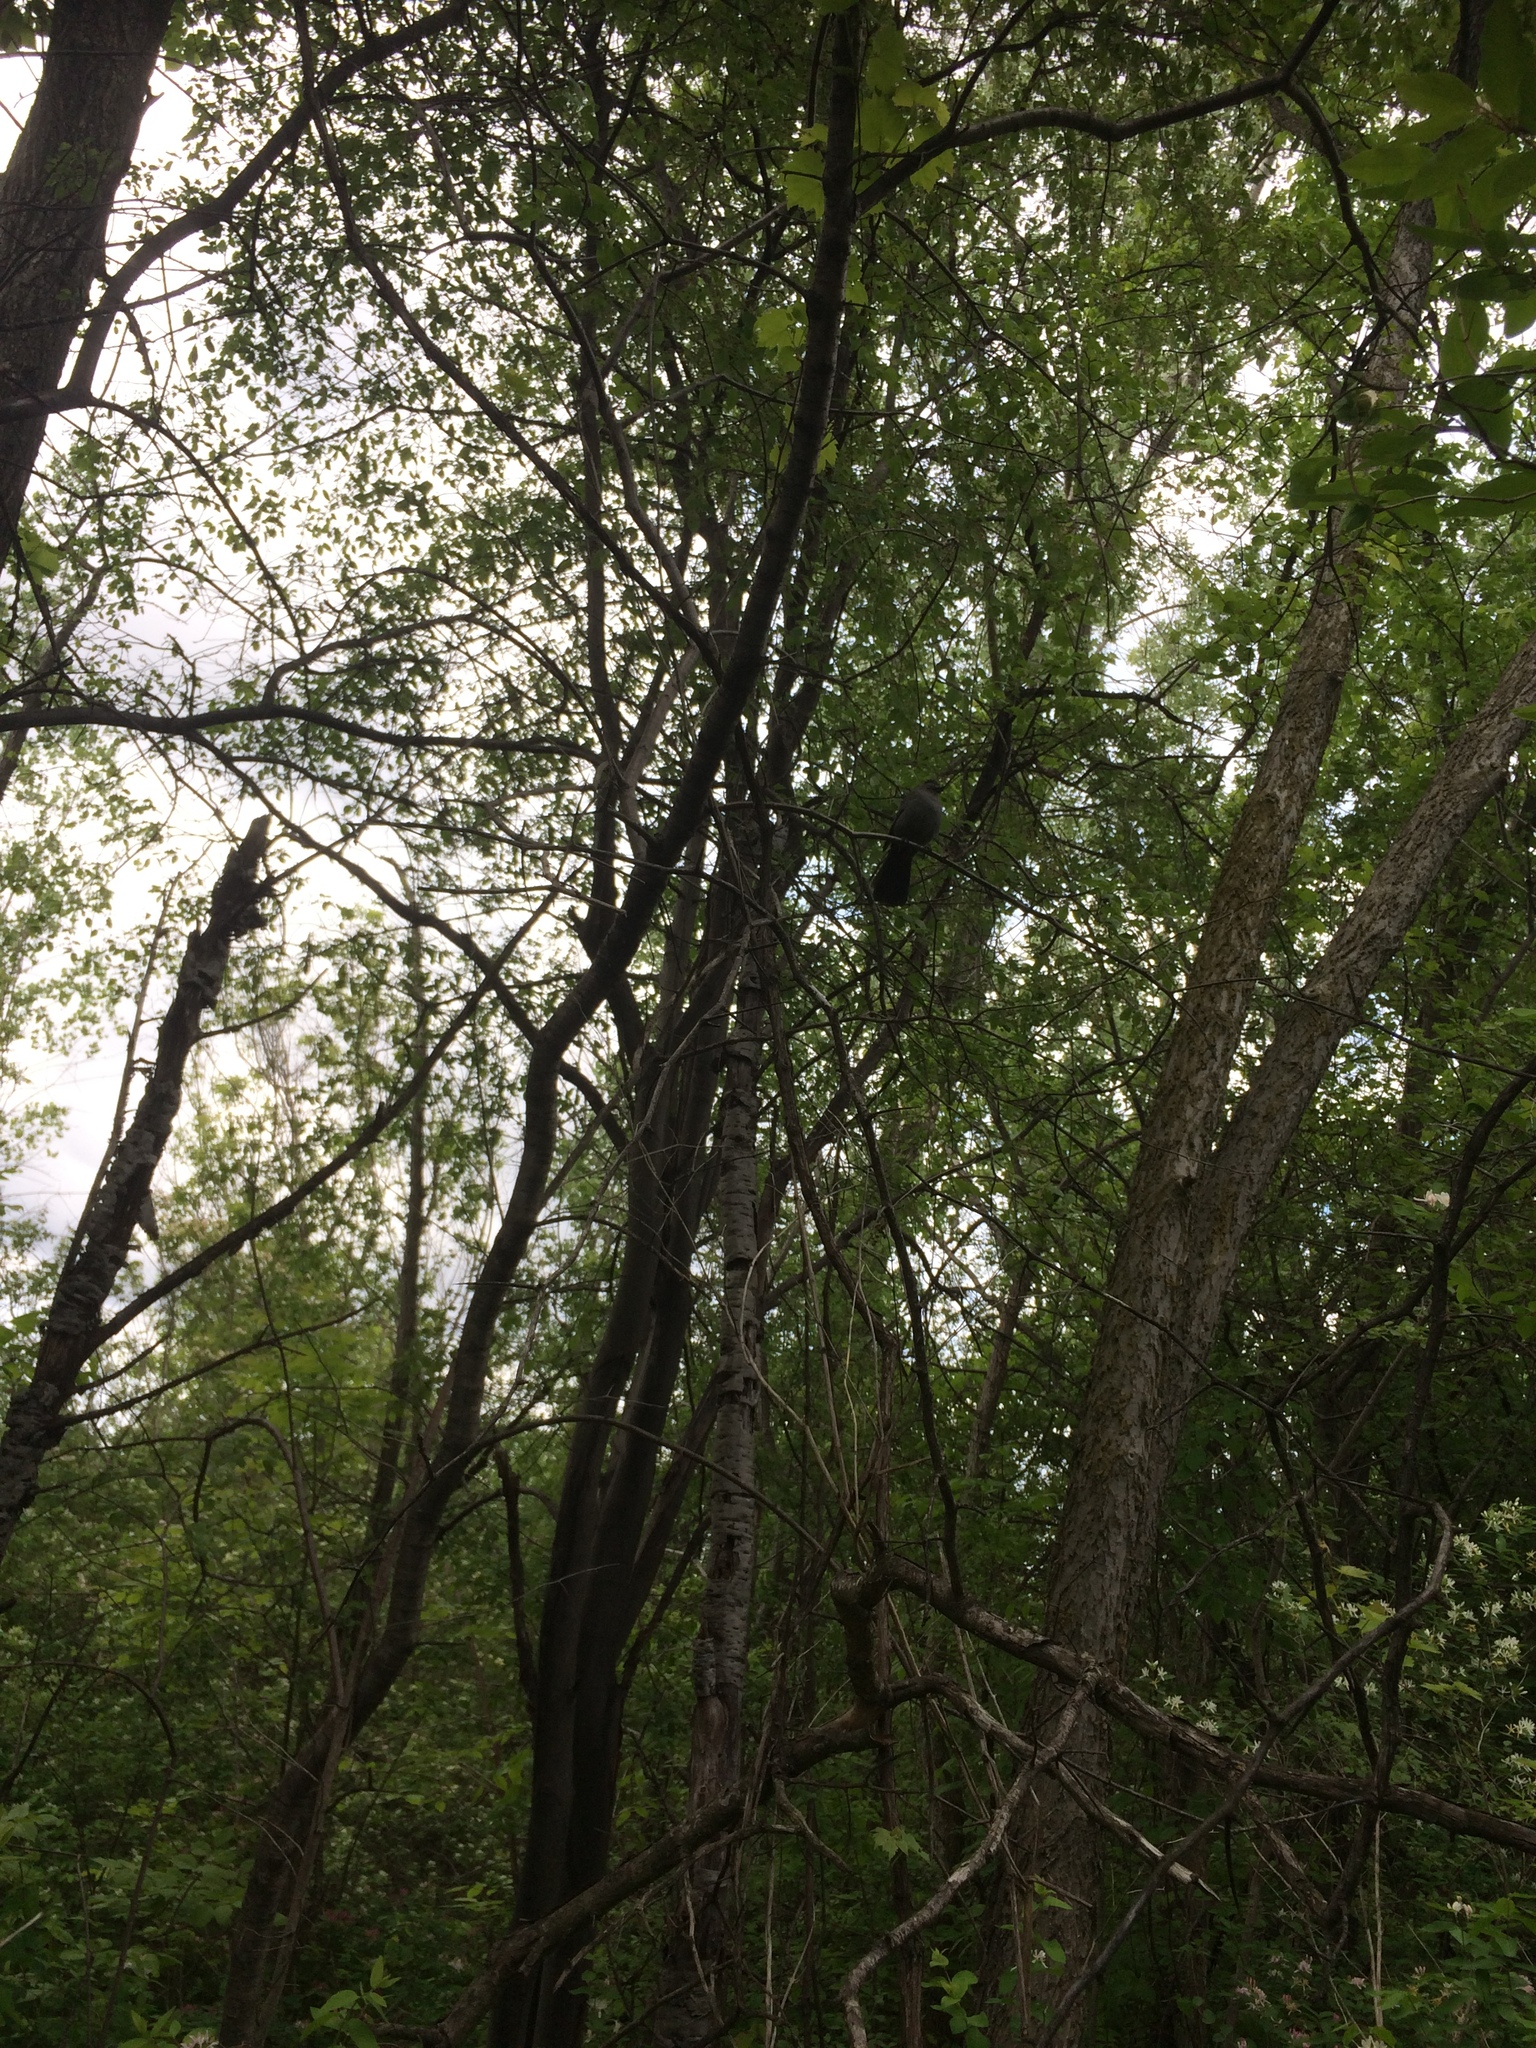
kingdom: Animalia
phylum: Chordata
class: Aves
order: Passeriformes
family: Mimidae
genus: Dumetella
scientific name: Dumetella carolinensis
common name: Gray catbird
